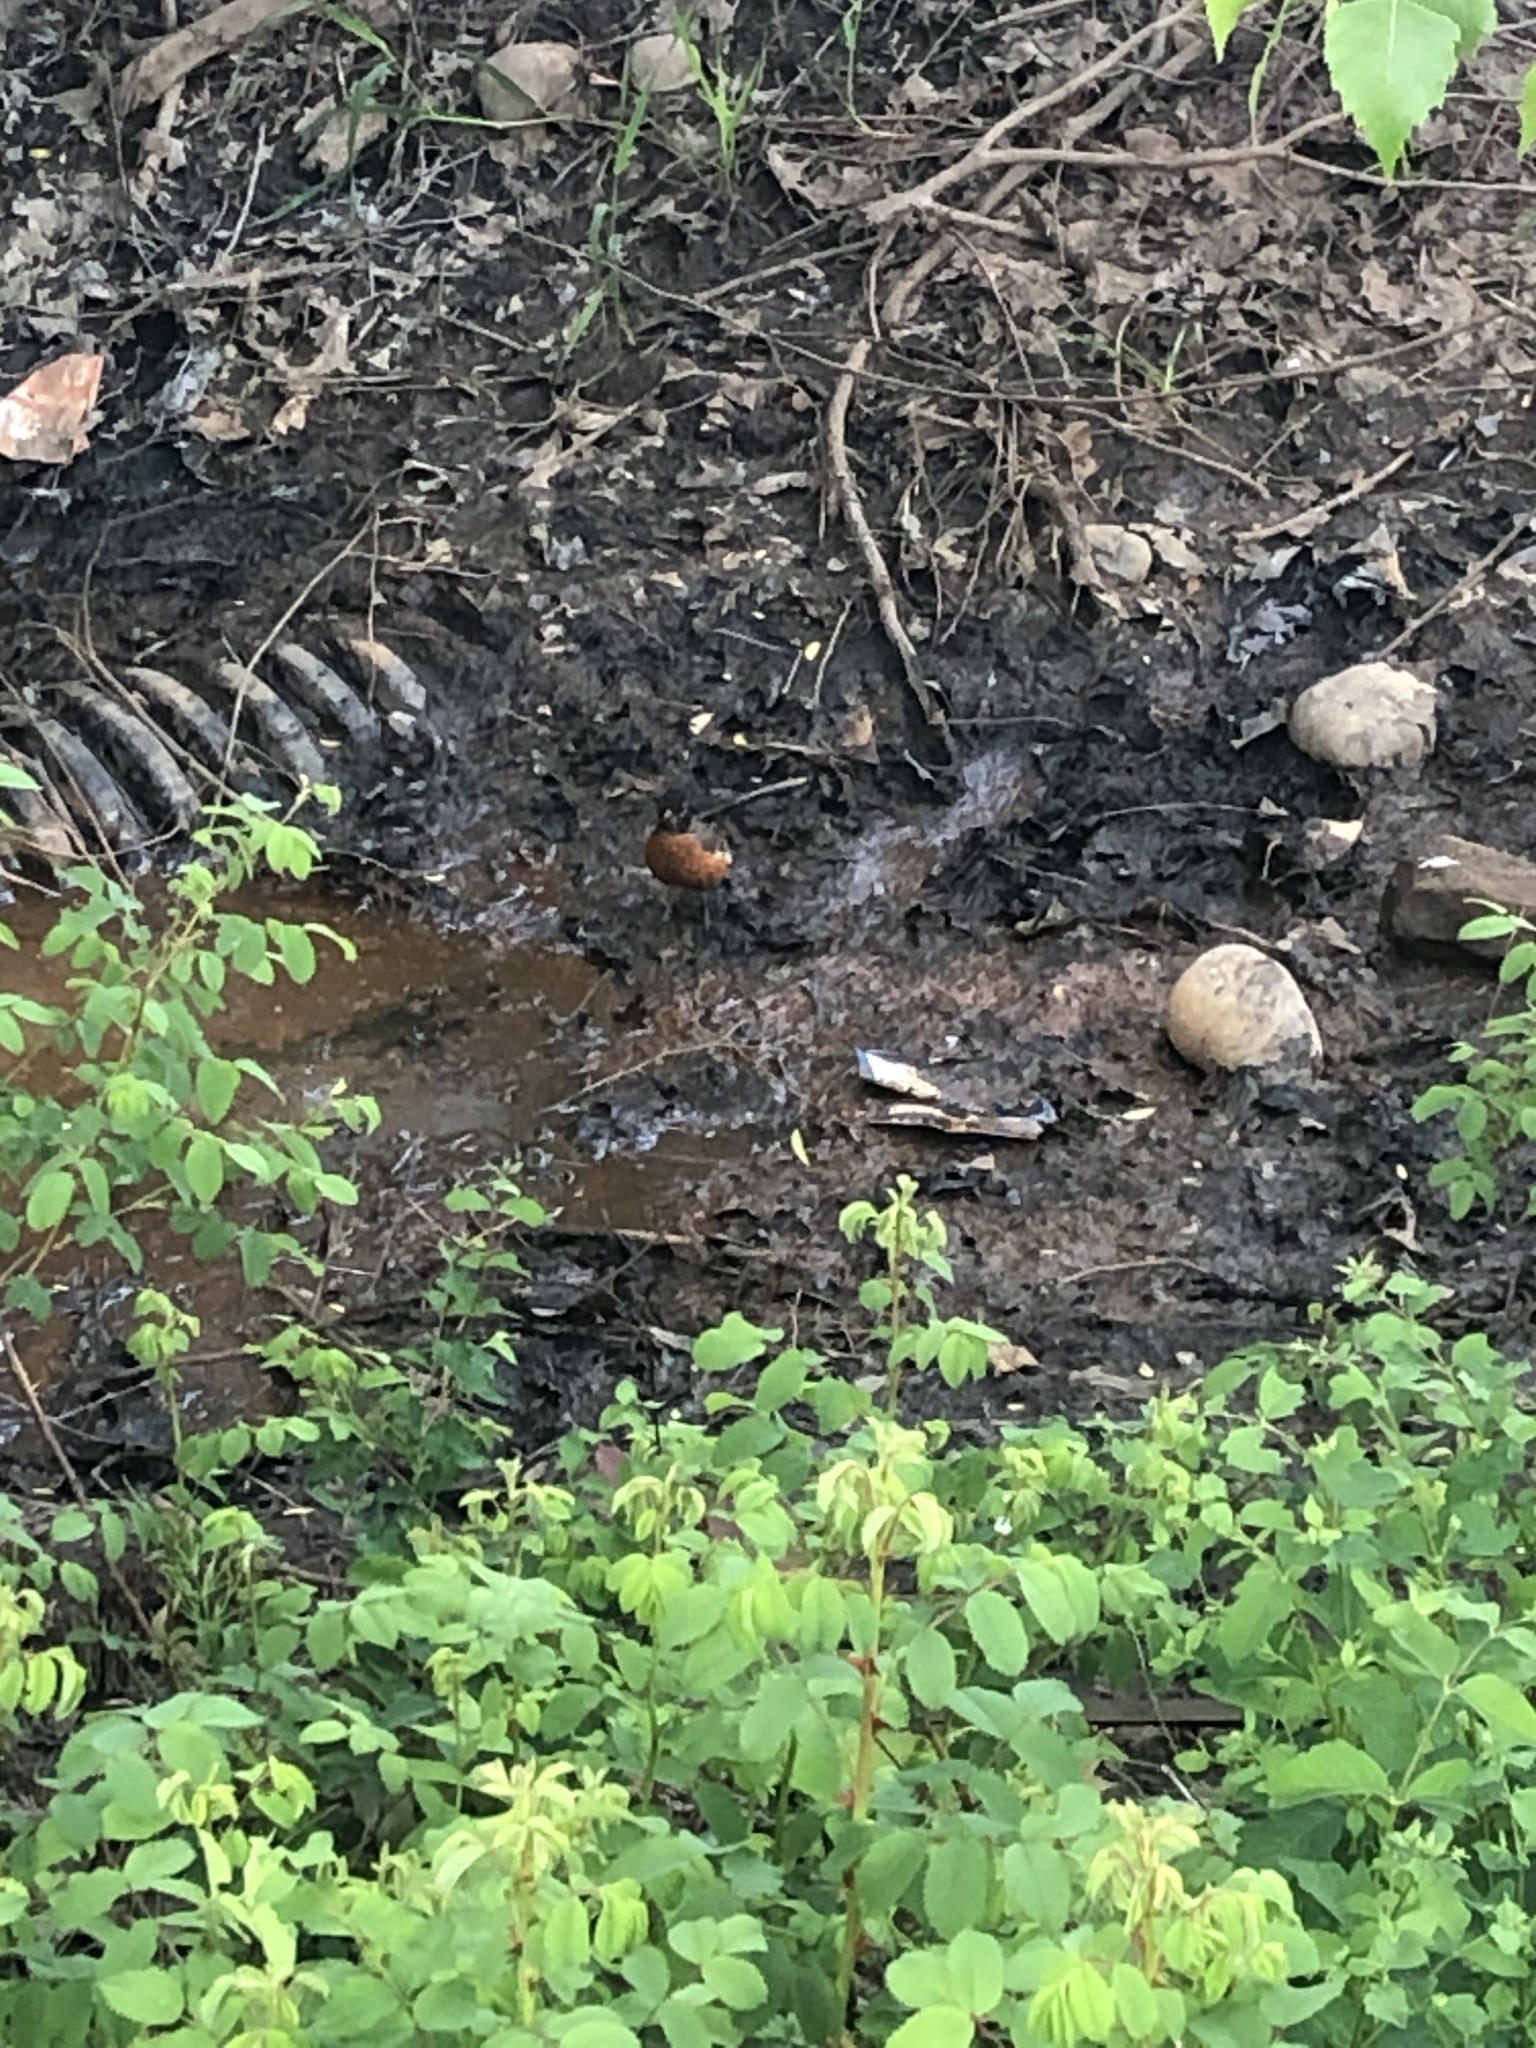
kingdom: Animalia
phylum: Chordata
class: Aves
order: Passeriformes
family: Turdidae
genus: Turdus
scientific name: Turdus migratorius
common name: American robin
